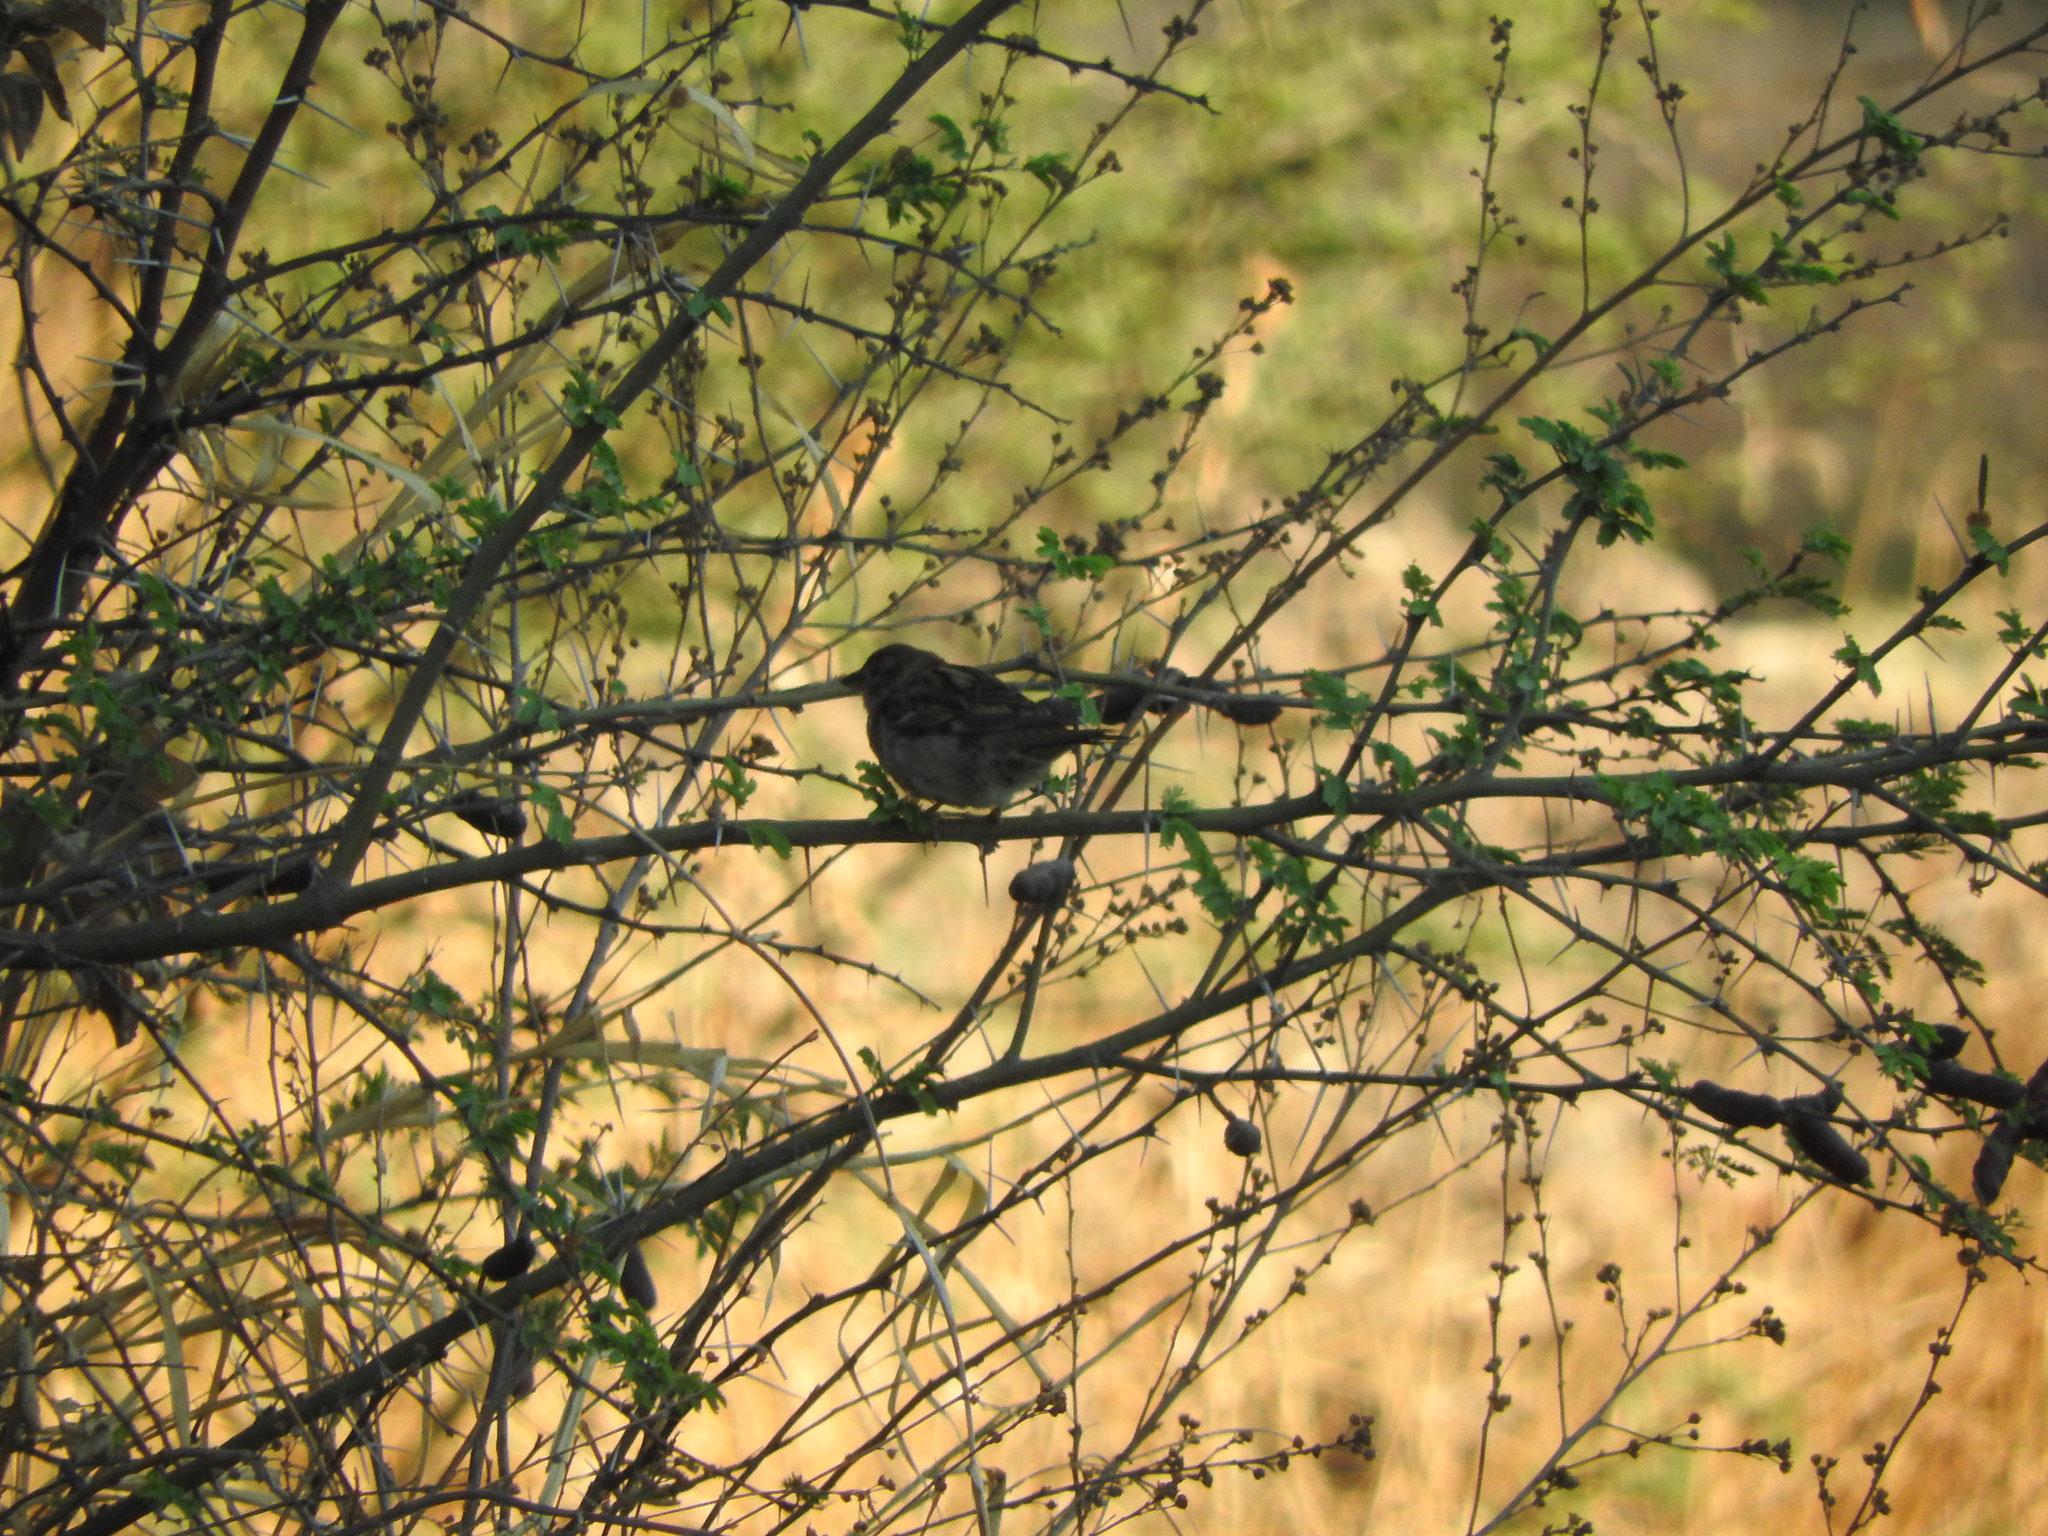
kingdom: Animalia
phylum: Chordata
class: Aves
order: Passeriformes
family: Passeridae
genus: Passer
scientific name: Passer domesticus
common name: House sparrow
